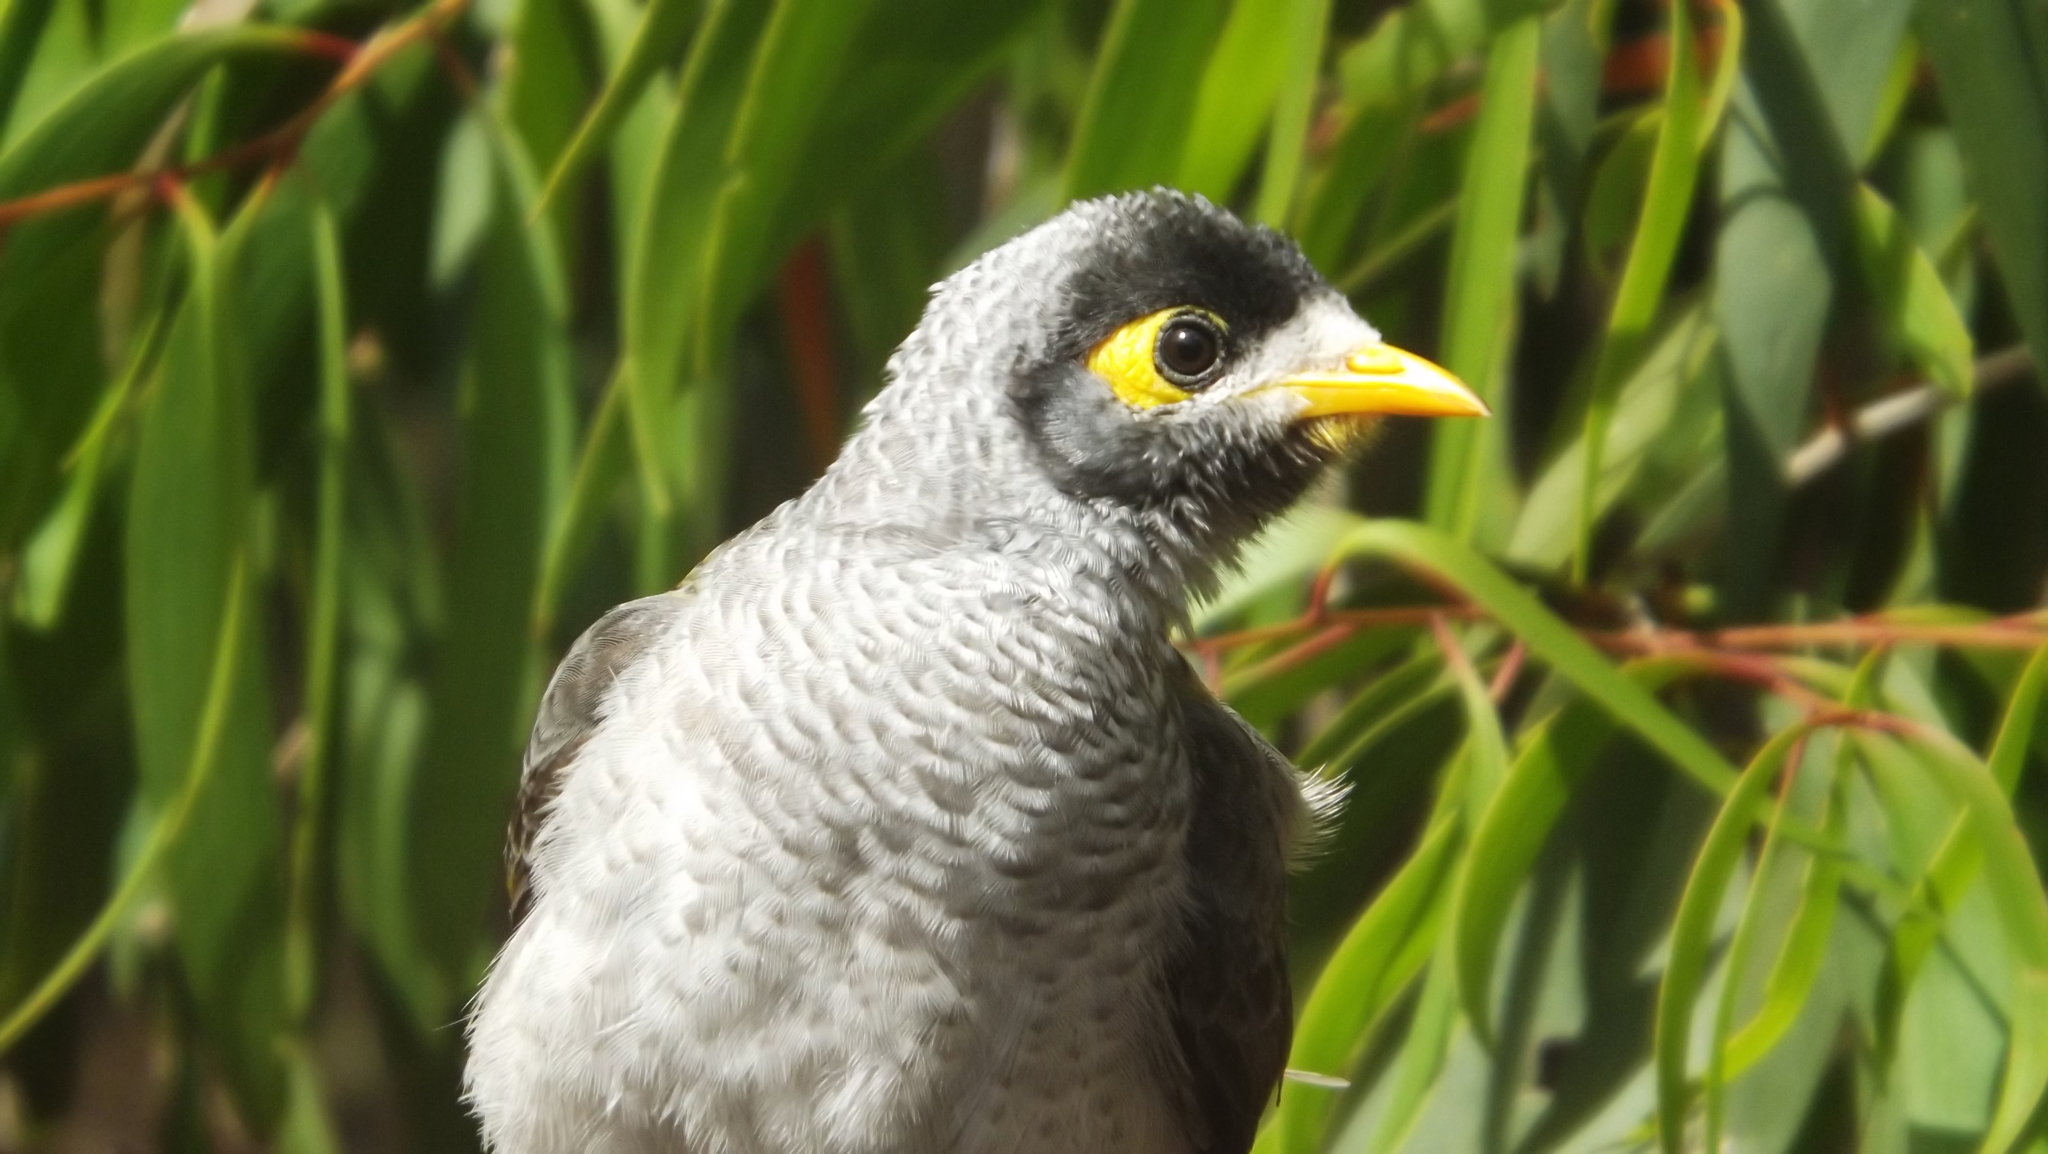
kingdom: Animalia
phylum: Chordata
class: Aves
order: Passeriformes
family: Meliphagidae
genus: Manorina
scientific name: Manorina melanocephala
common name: Noisy miner
